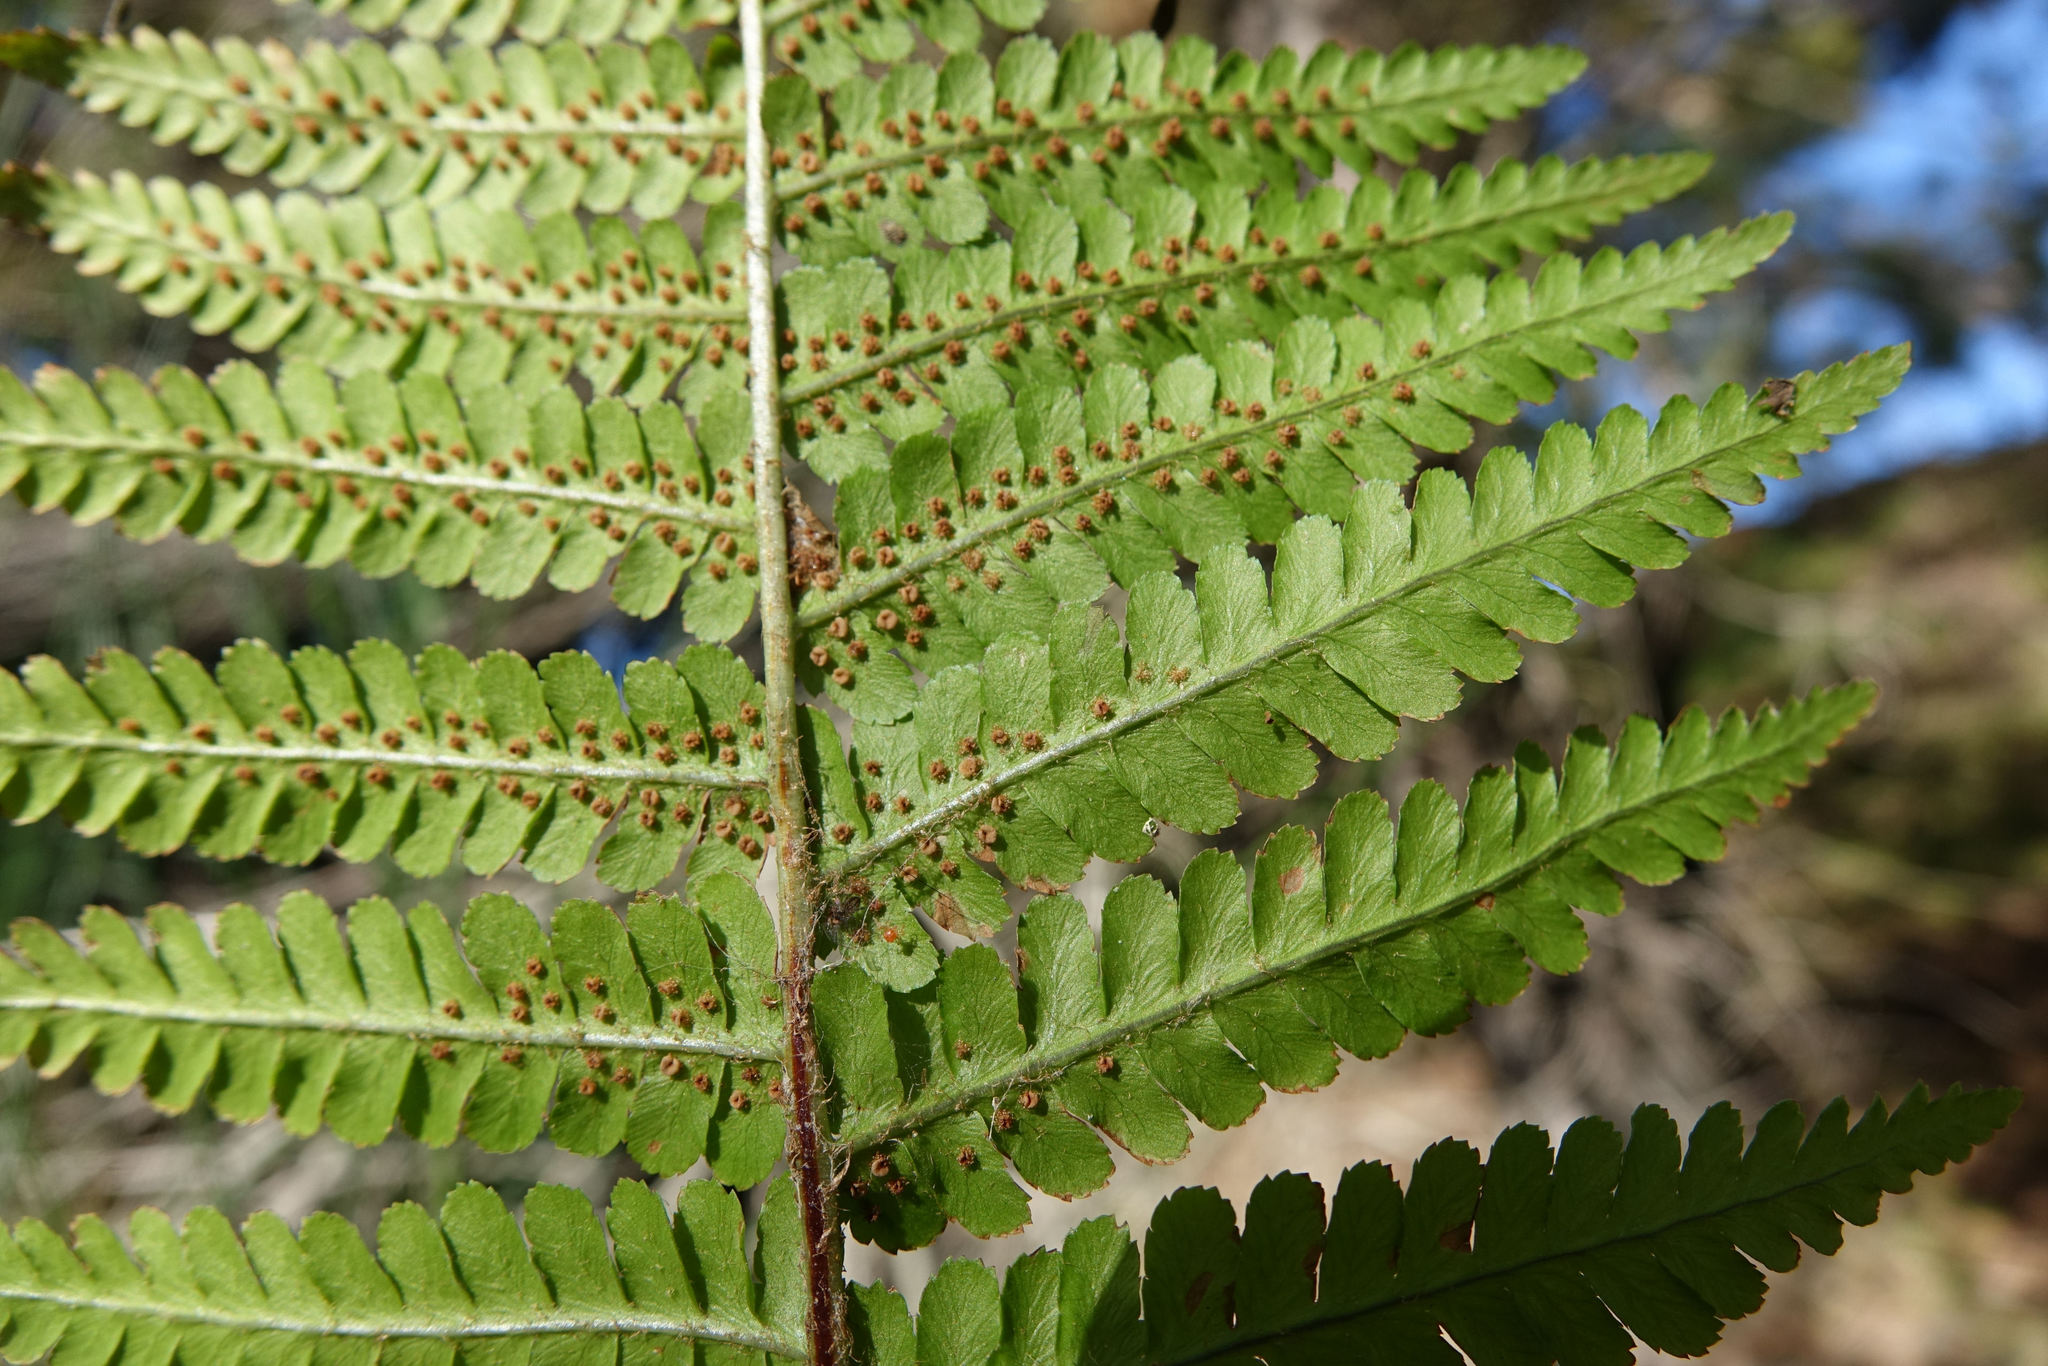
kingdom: Plantae
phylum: Tracheophyta
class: Polypodiopsida
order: Polypodiales
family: Dryopteridaceae
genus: Dryopteris
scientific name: Dryopteris filix-mas
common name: Male fern
